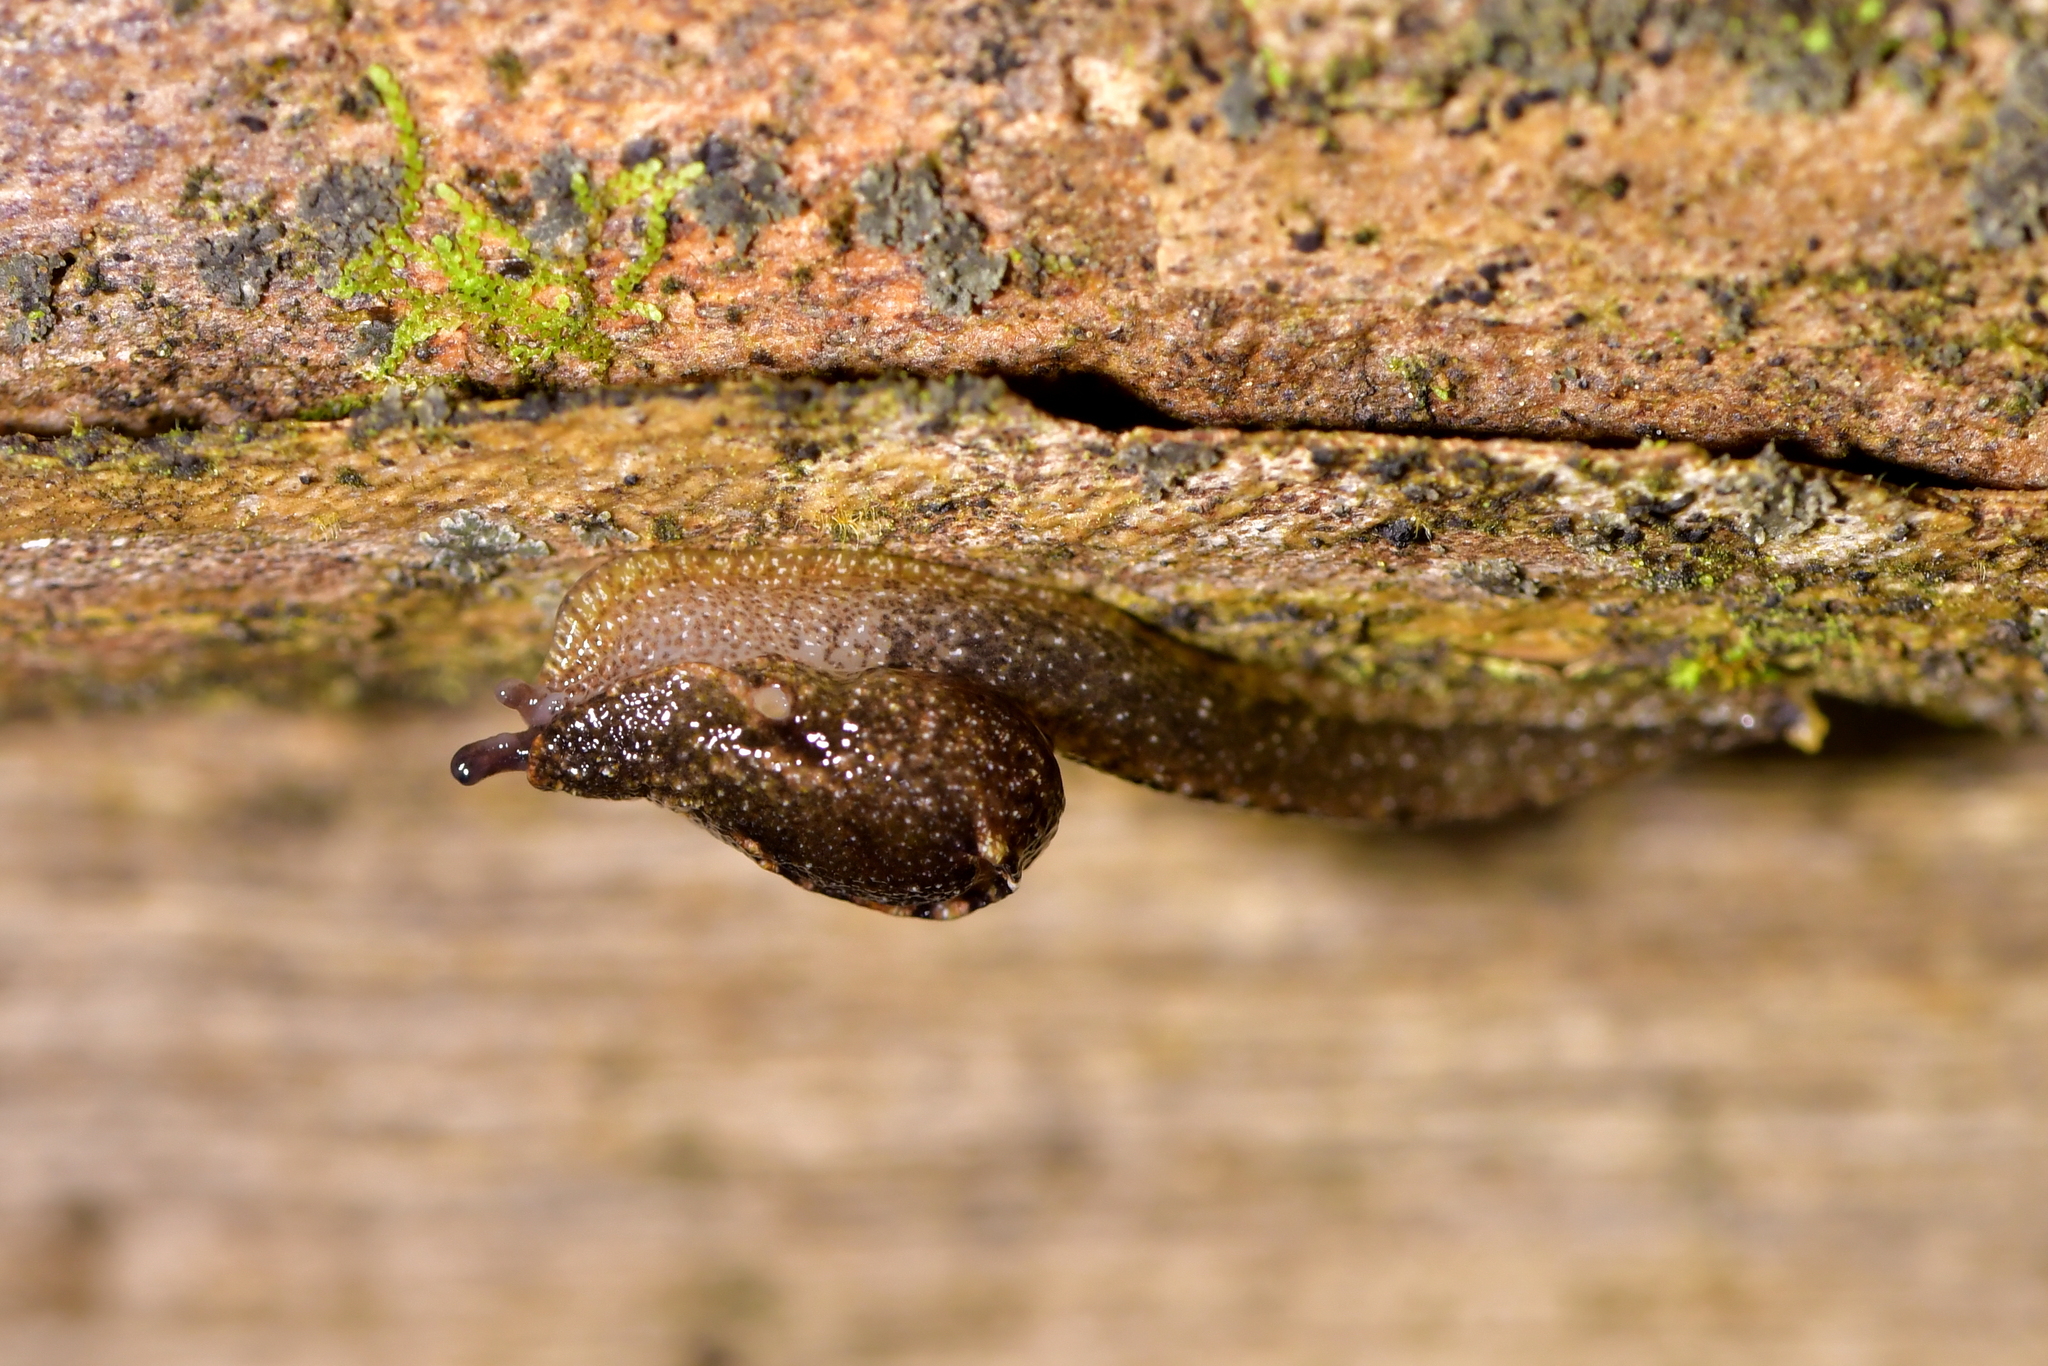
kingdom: Animalia
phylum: Mollusca
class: Gastropoda
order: Stylommatophora
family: Charopidae
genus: Otoconcha
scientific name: Otoconcha dimidiata
